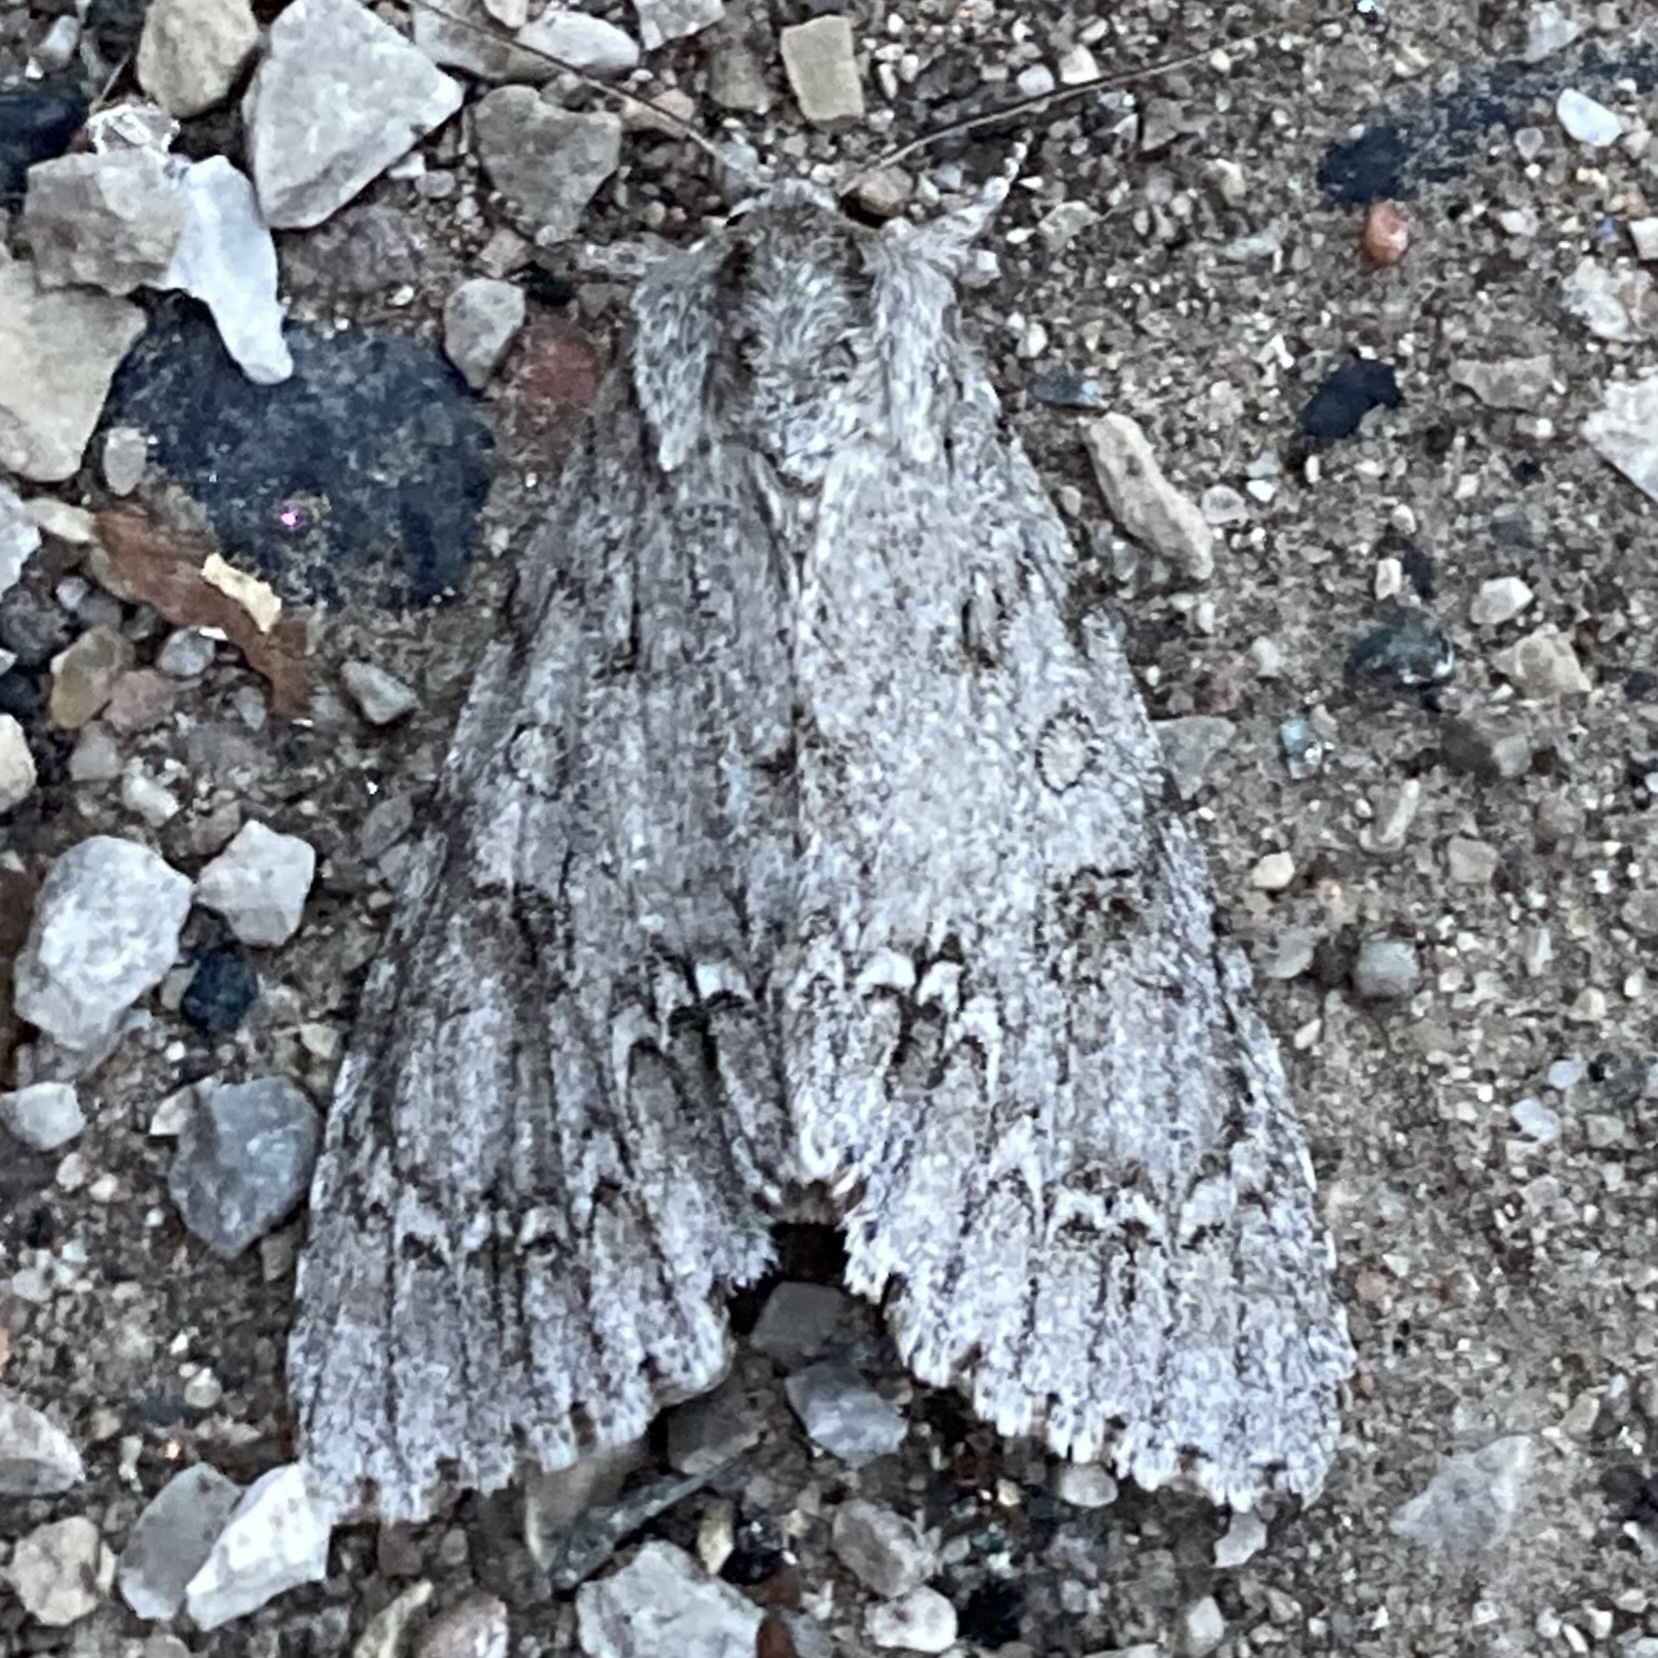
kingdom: Animalia
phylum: Arthropoda
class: Insecta
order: Lepidoptera
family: Noctuidae
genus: Acronicta
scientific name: Acronicta americana
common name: American dagger
